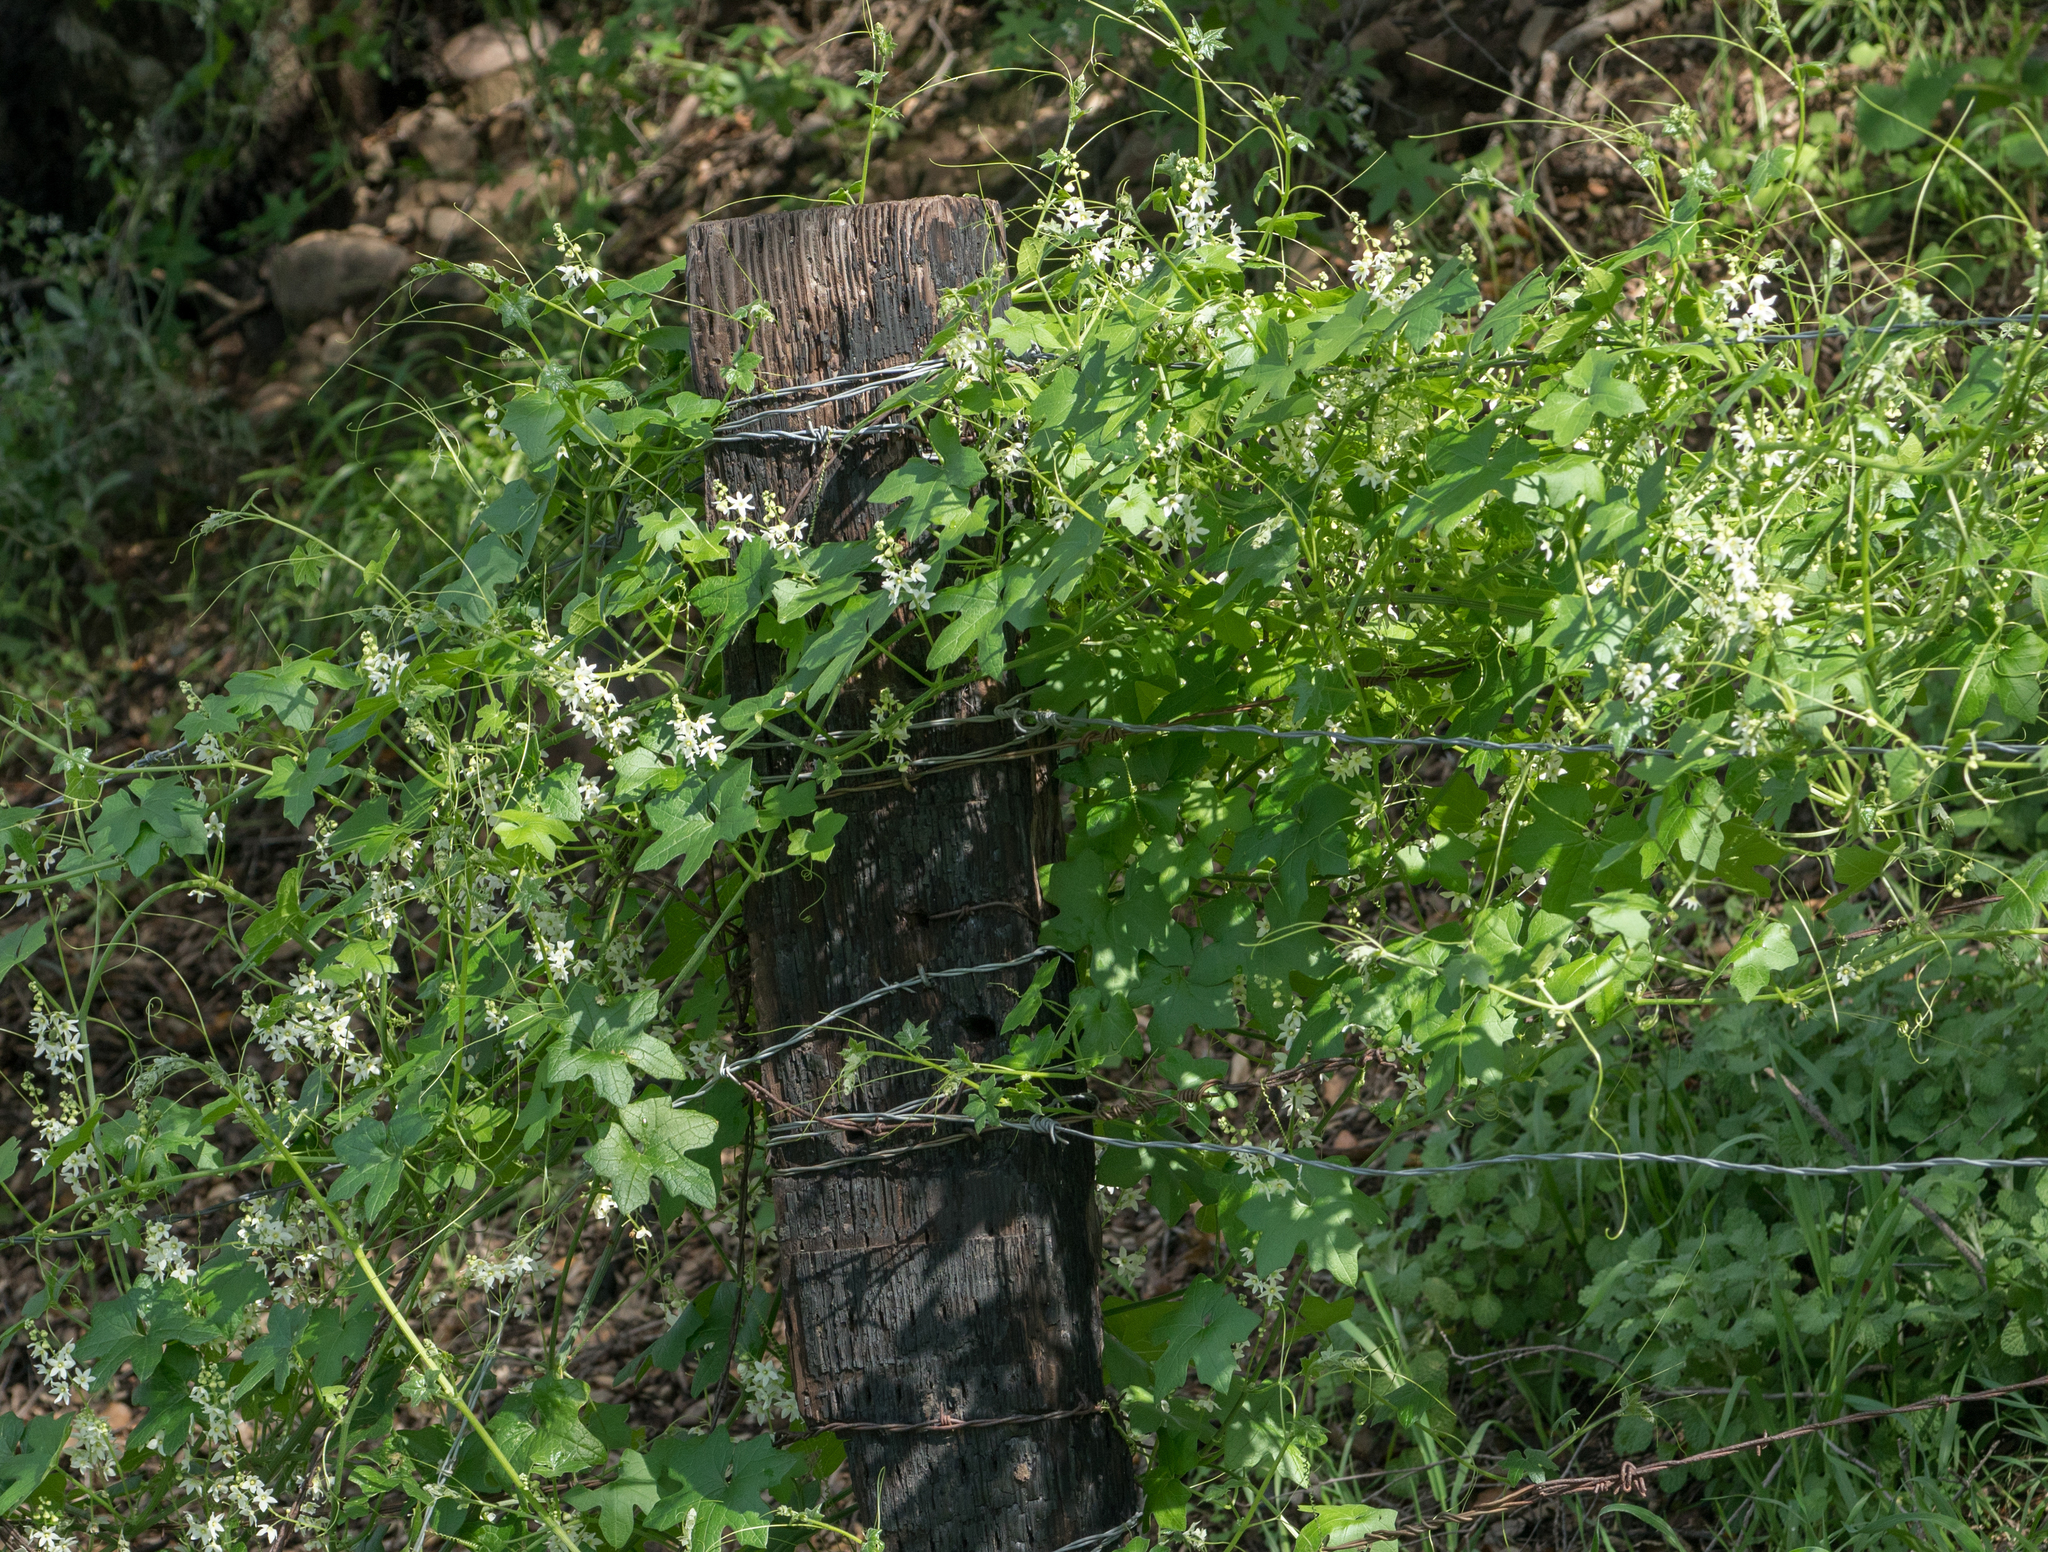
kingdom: Plantae
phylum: Tracheophyta
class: Magnoliopsida
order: Cucurbitales
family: Cucurbitaceae
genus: Marah
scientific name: Marah macrocarpa
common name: Cucamonga manroot
